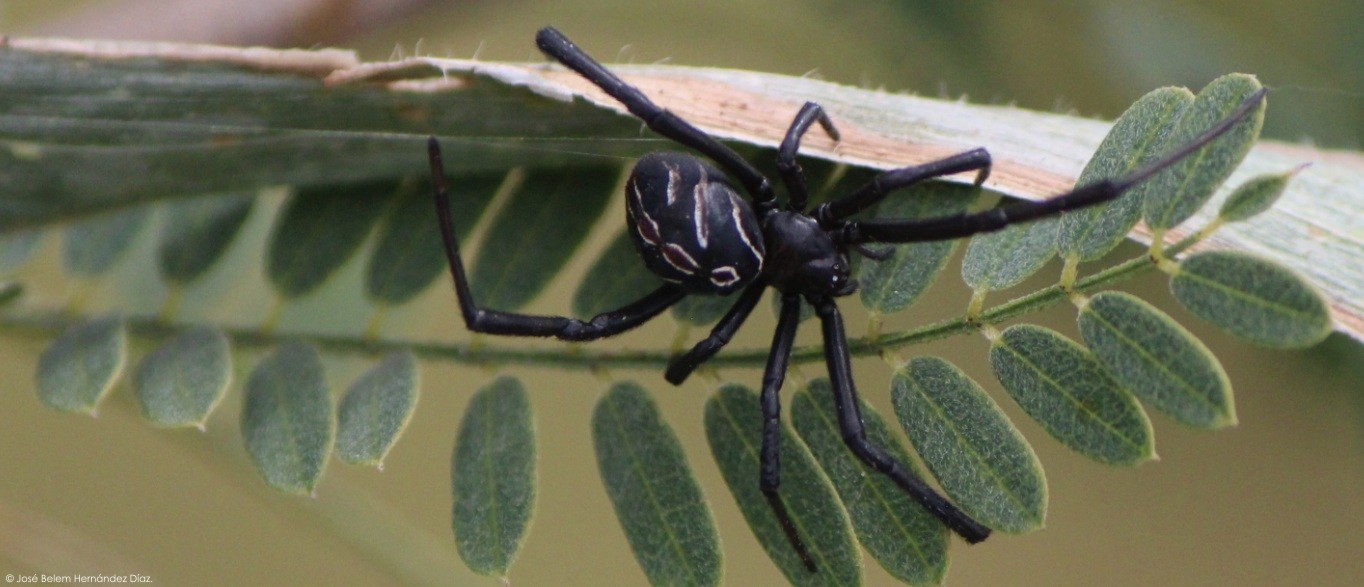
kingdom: Animalia
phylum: Arthropoda
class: Arachnida
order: Araneae
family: Theridiidae
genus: Latrodectus
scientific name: Latrodectus mactans
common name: Cobweb spiders
